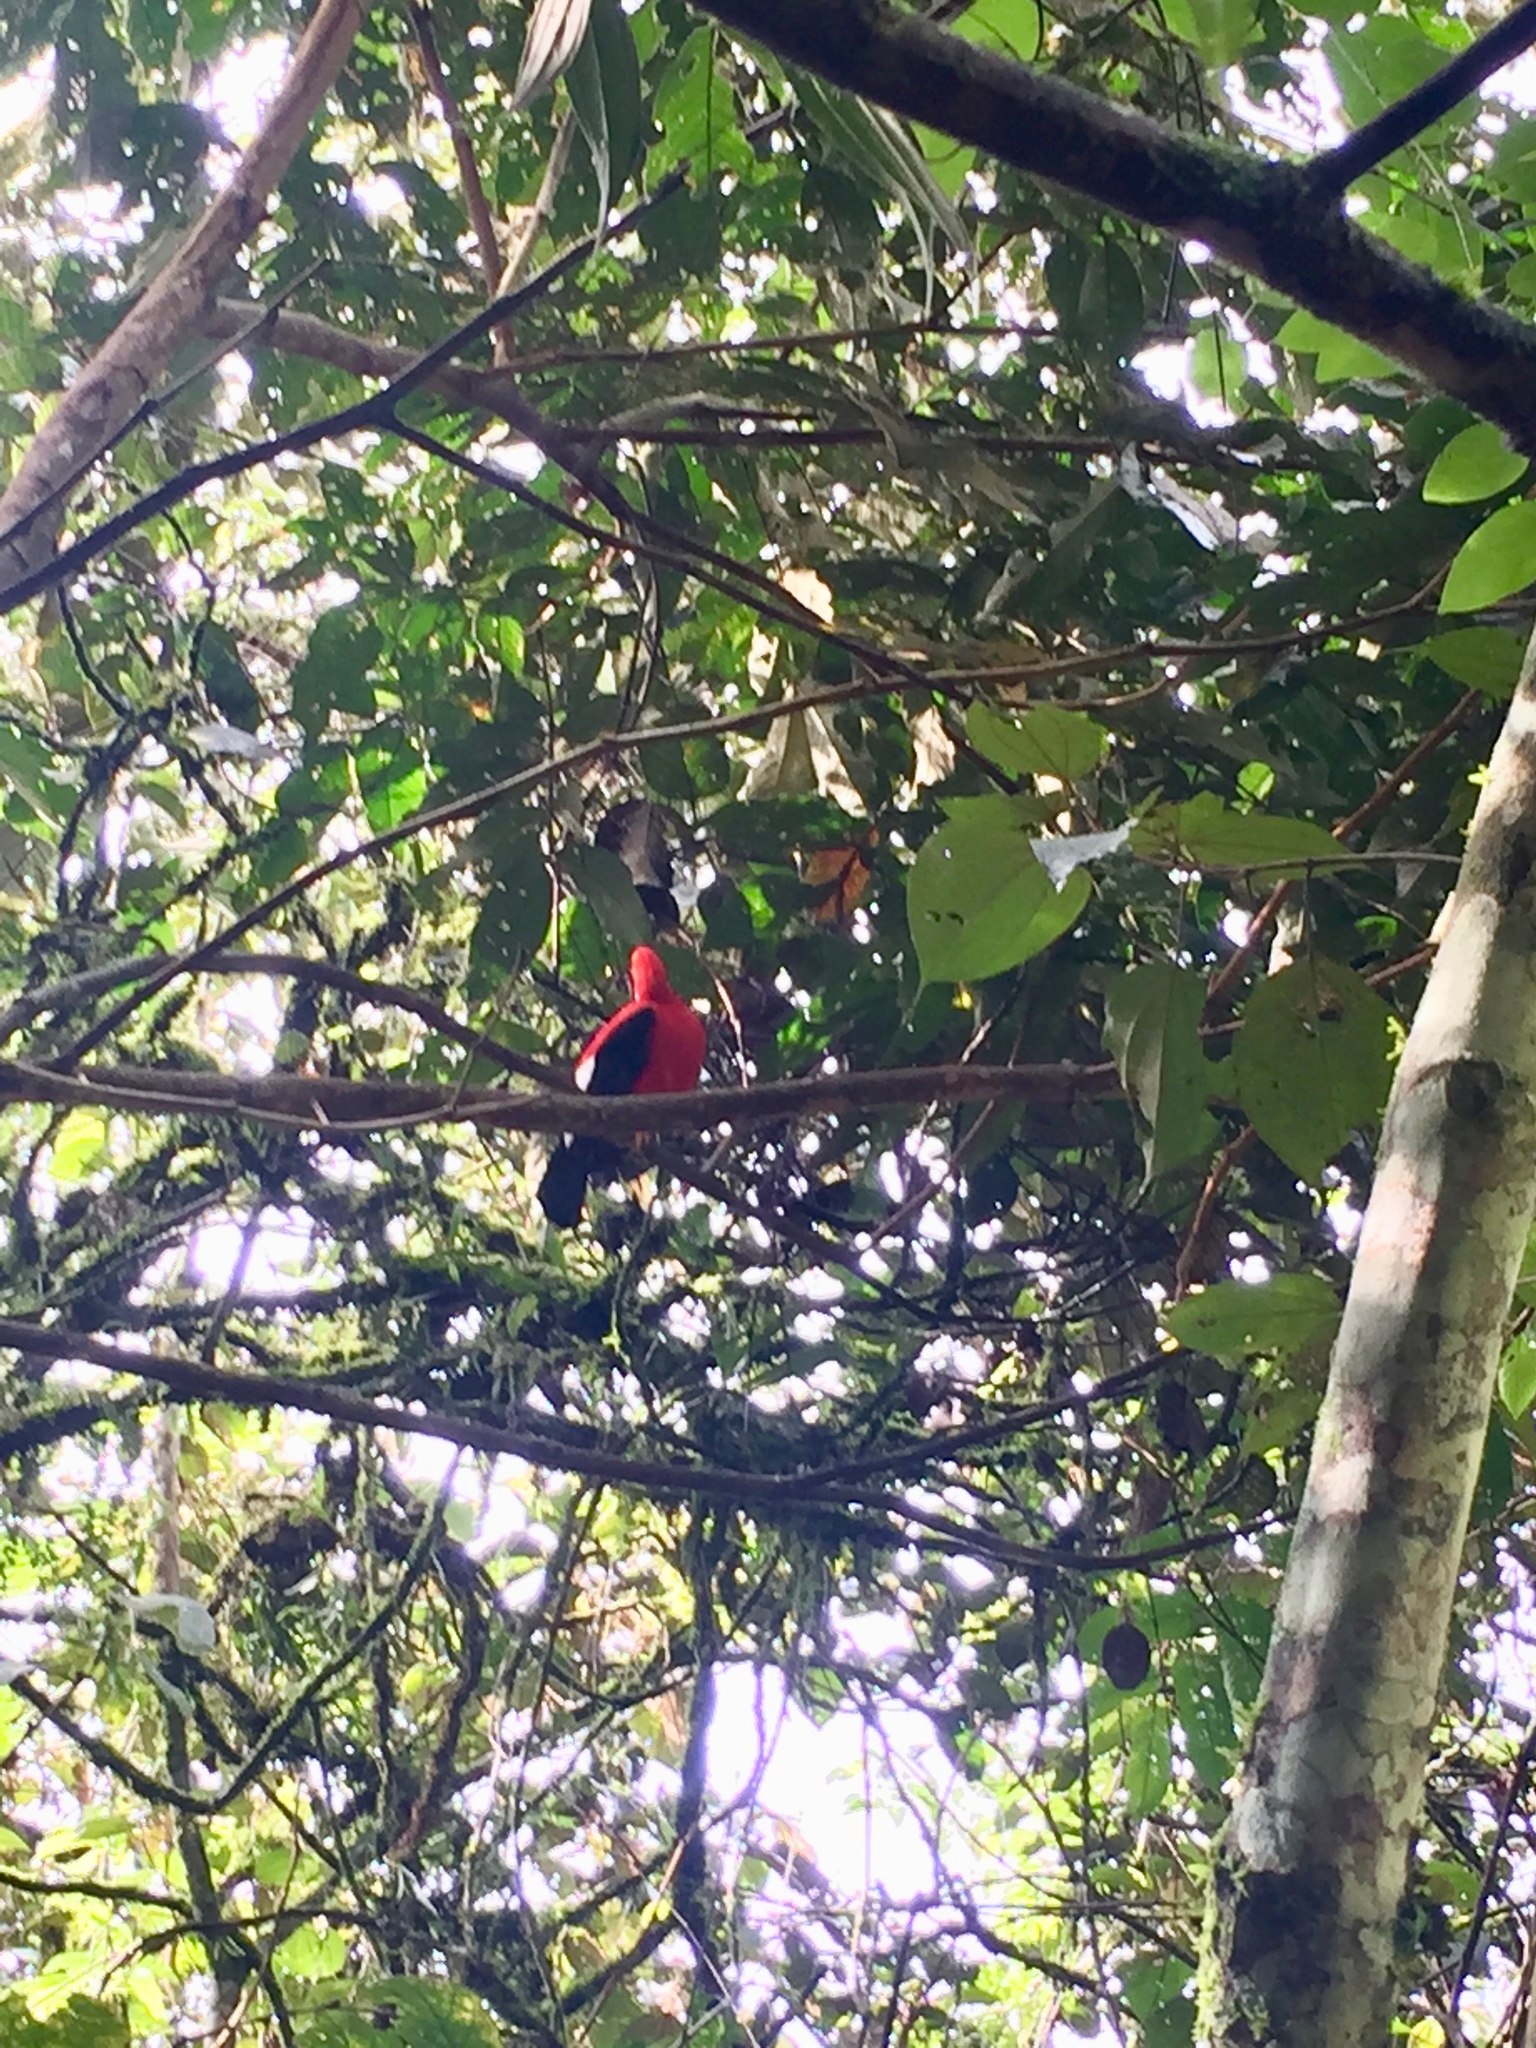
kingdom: Animalia
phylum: Chordata
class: Aves
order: Passeriformes
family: Cotingidae
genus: Rupicola
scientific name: Rupicola peruvianus
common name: Andean cock-of-the-rock
